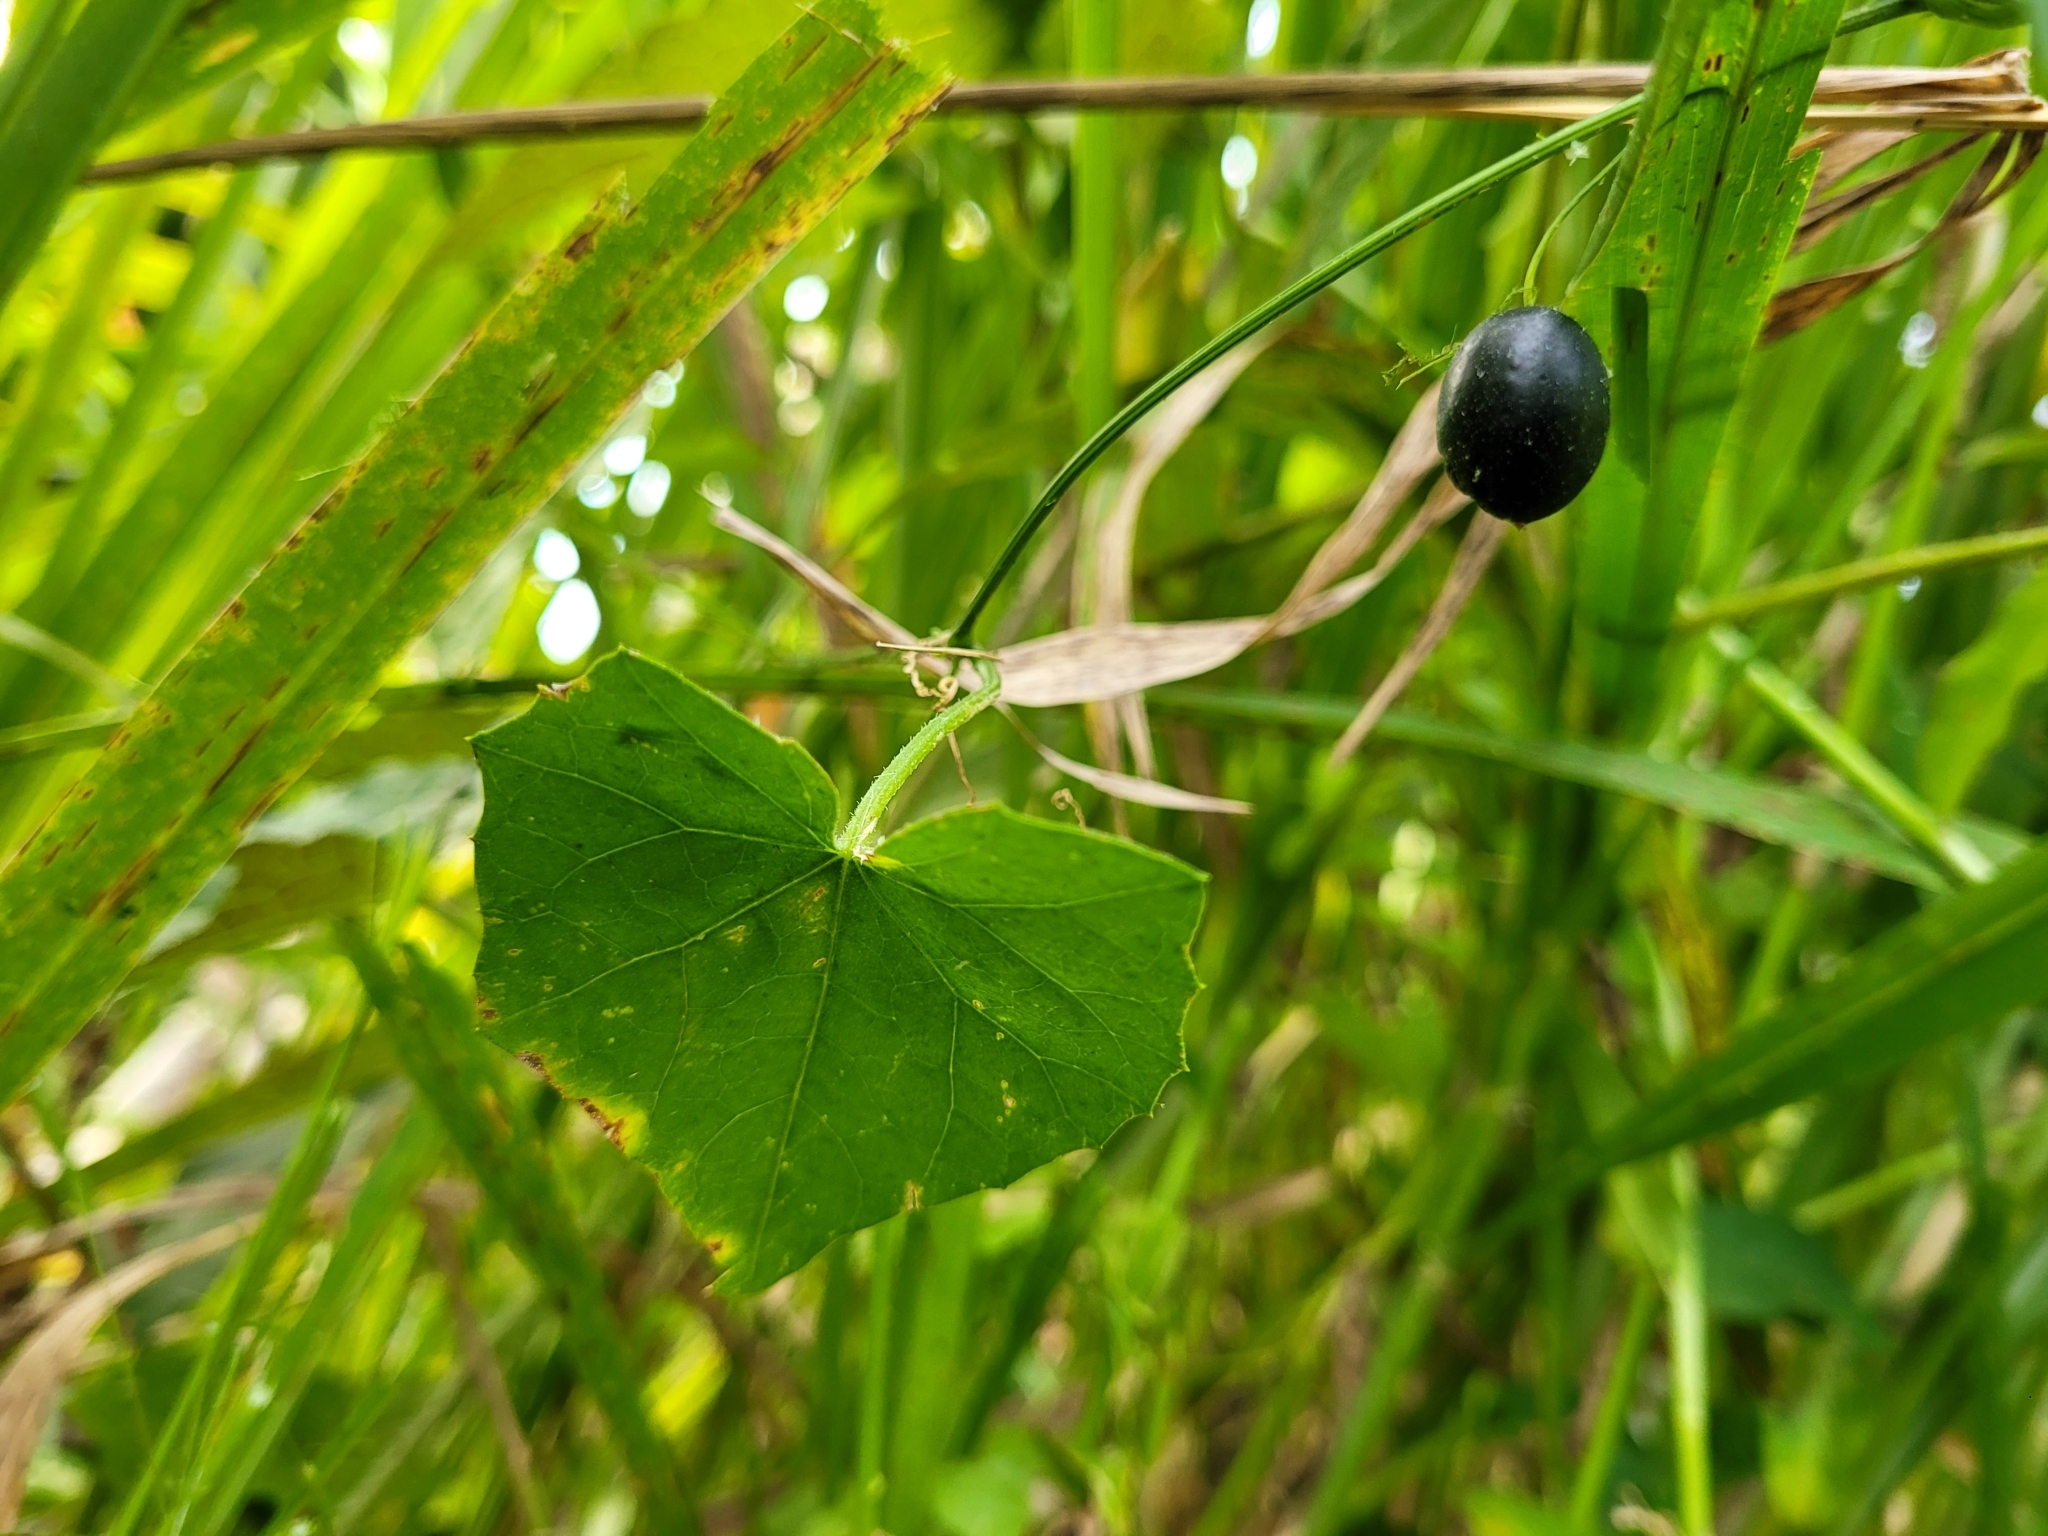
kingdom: Plantae
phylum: Tracheophyta
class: Magnoliopsida
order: Cucurbitales
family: Cucurbitaceae
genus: Melothria
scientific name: Melothria pendula
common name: Creeping-cucumber
